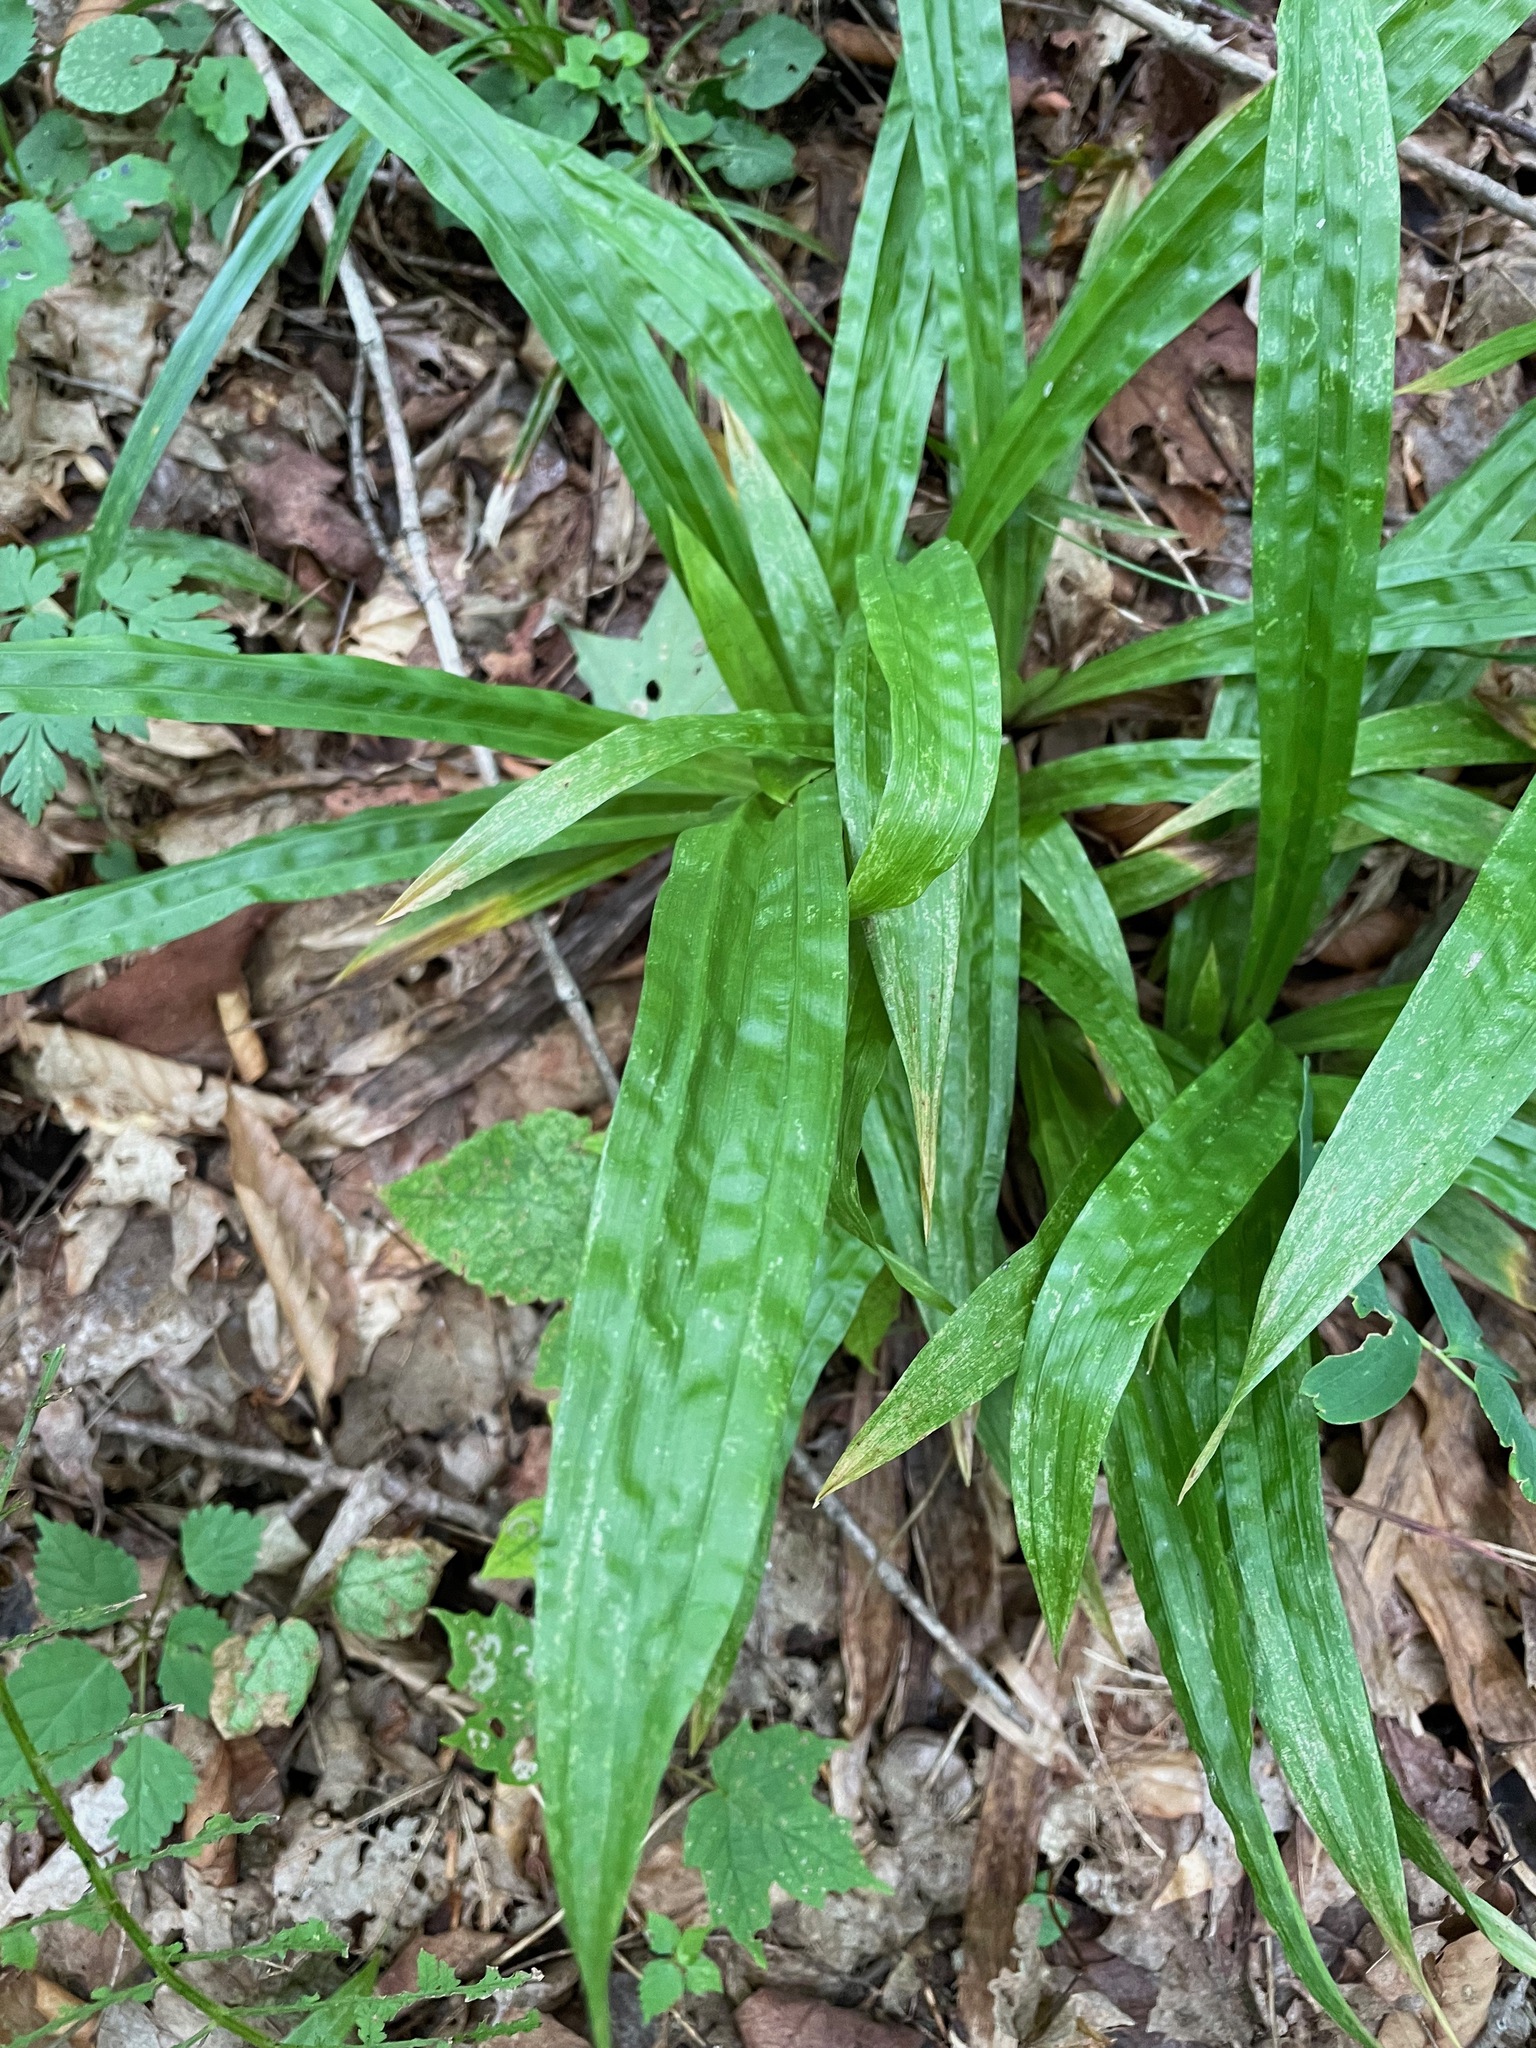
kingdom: Plantae
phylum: Tracheophyta
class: Liliopsida
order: Poales
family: Cyperaceae
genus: Carex
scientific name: Carex plantaginea
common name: Plantain-leaved sedge
